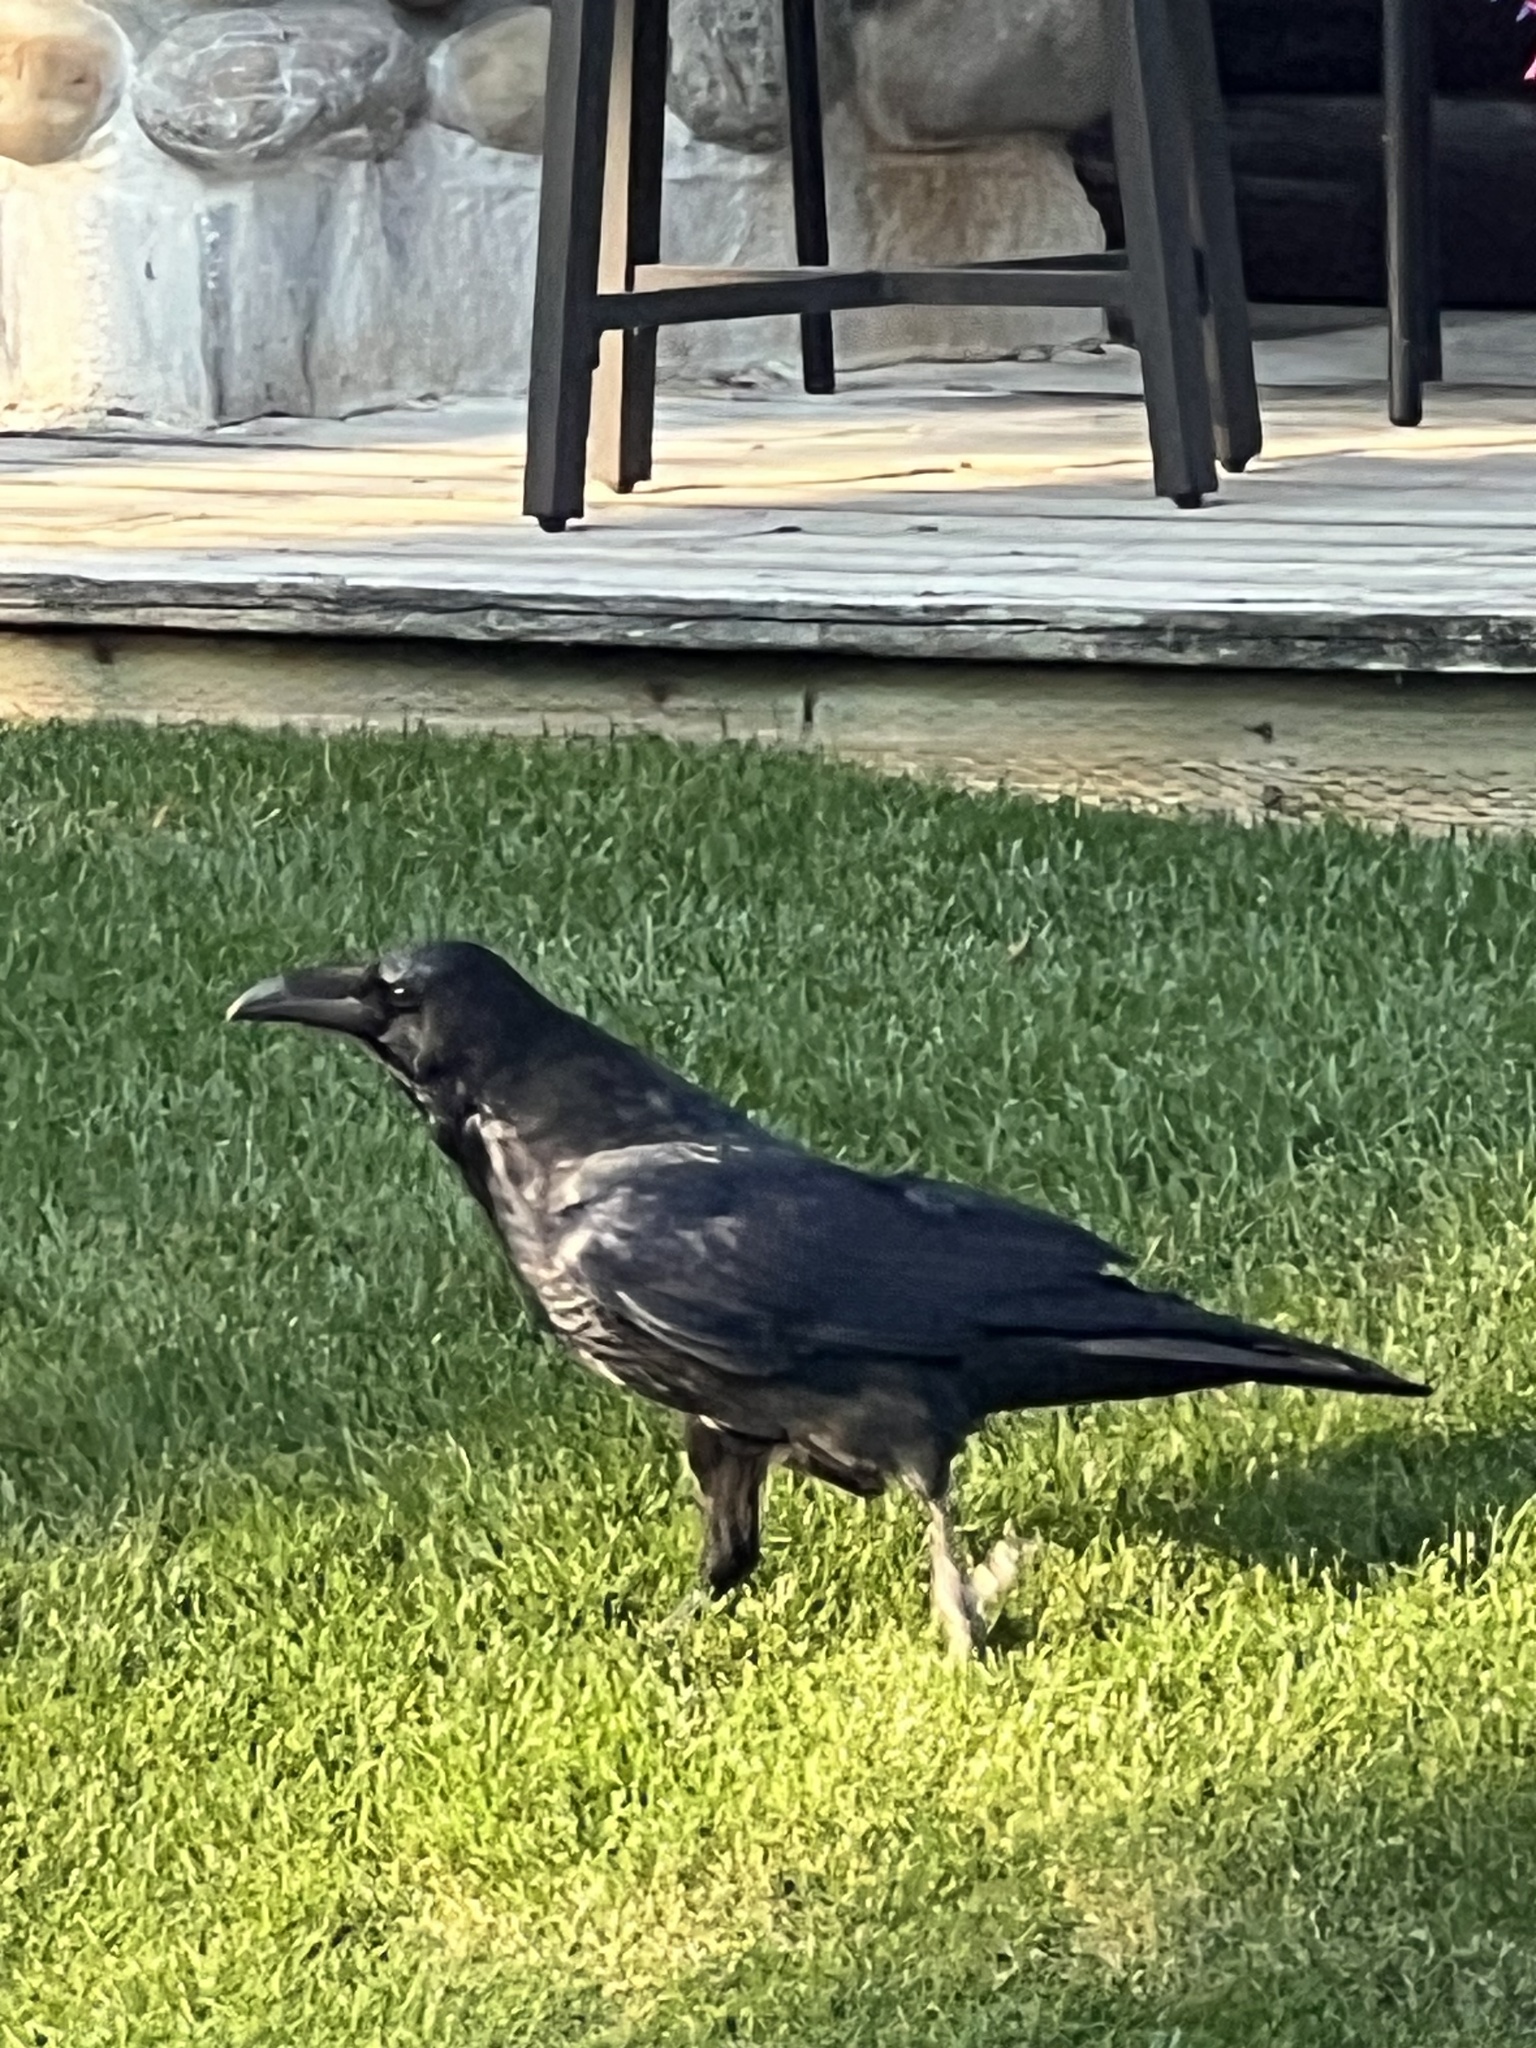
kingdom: Animalia
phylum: Chordata
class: Aves
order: Passeriformes
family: Corvidae
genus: Corvus
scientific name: Corvus corax
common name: Common raven
